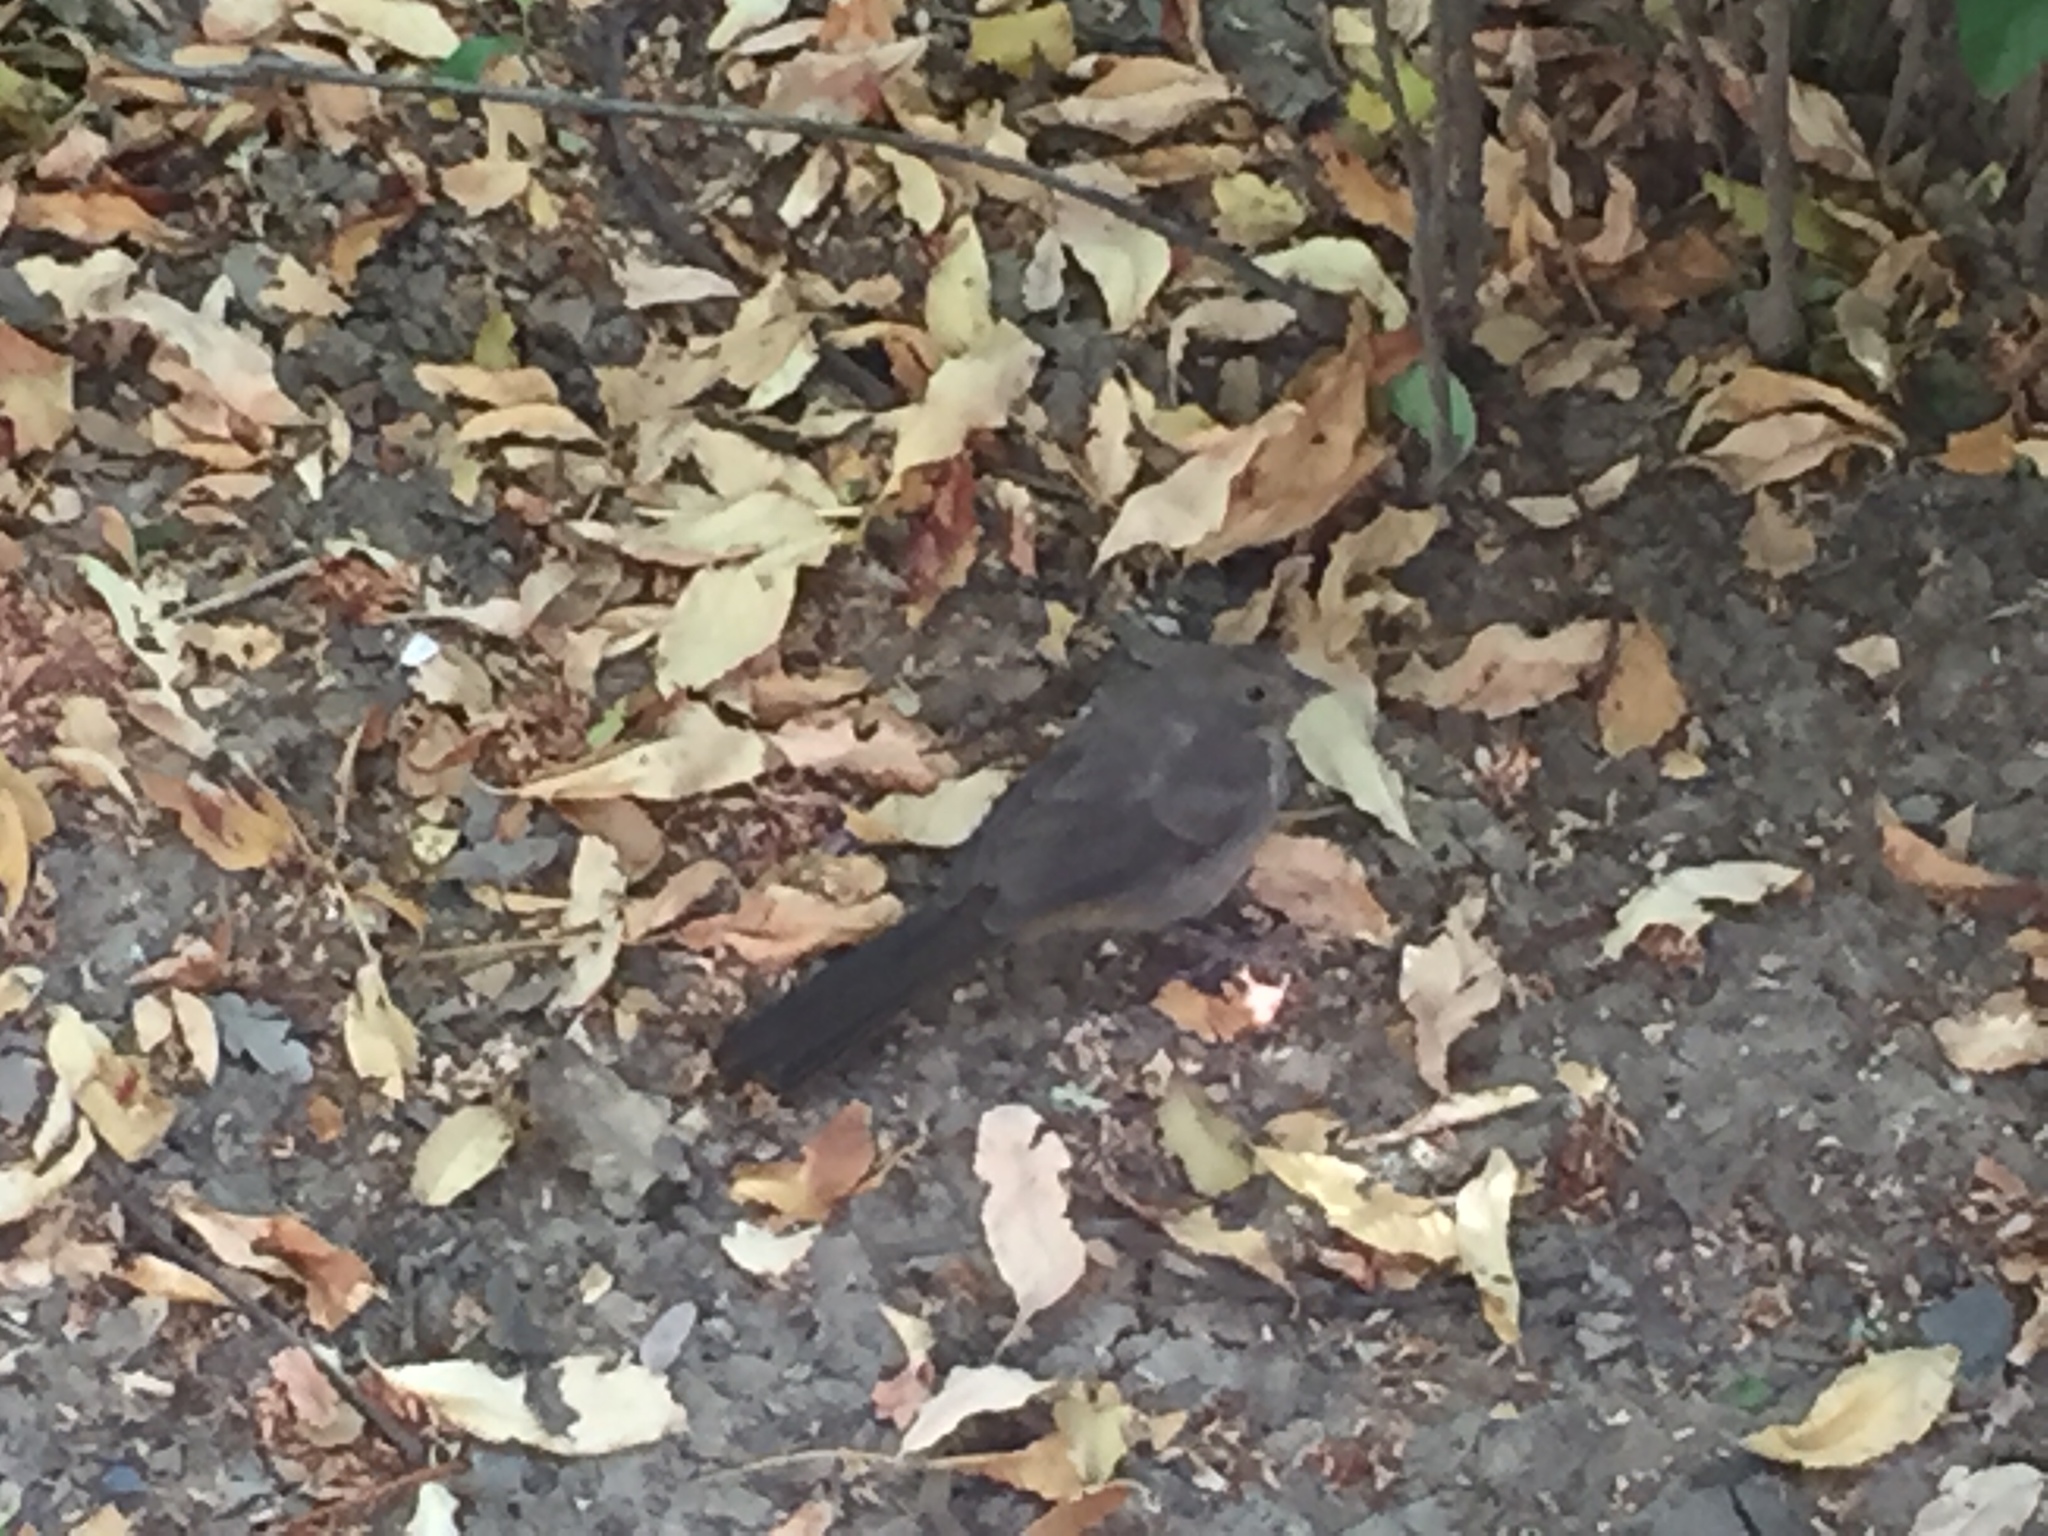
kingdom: Animalia
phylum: Chordata
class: Aves
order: Passeriformes
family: Passerellidae
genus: Melozone
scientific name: Melozone crissalis
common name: California towhee
